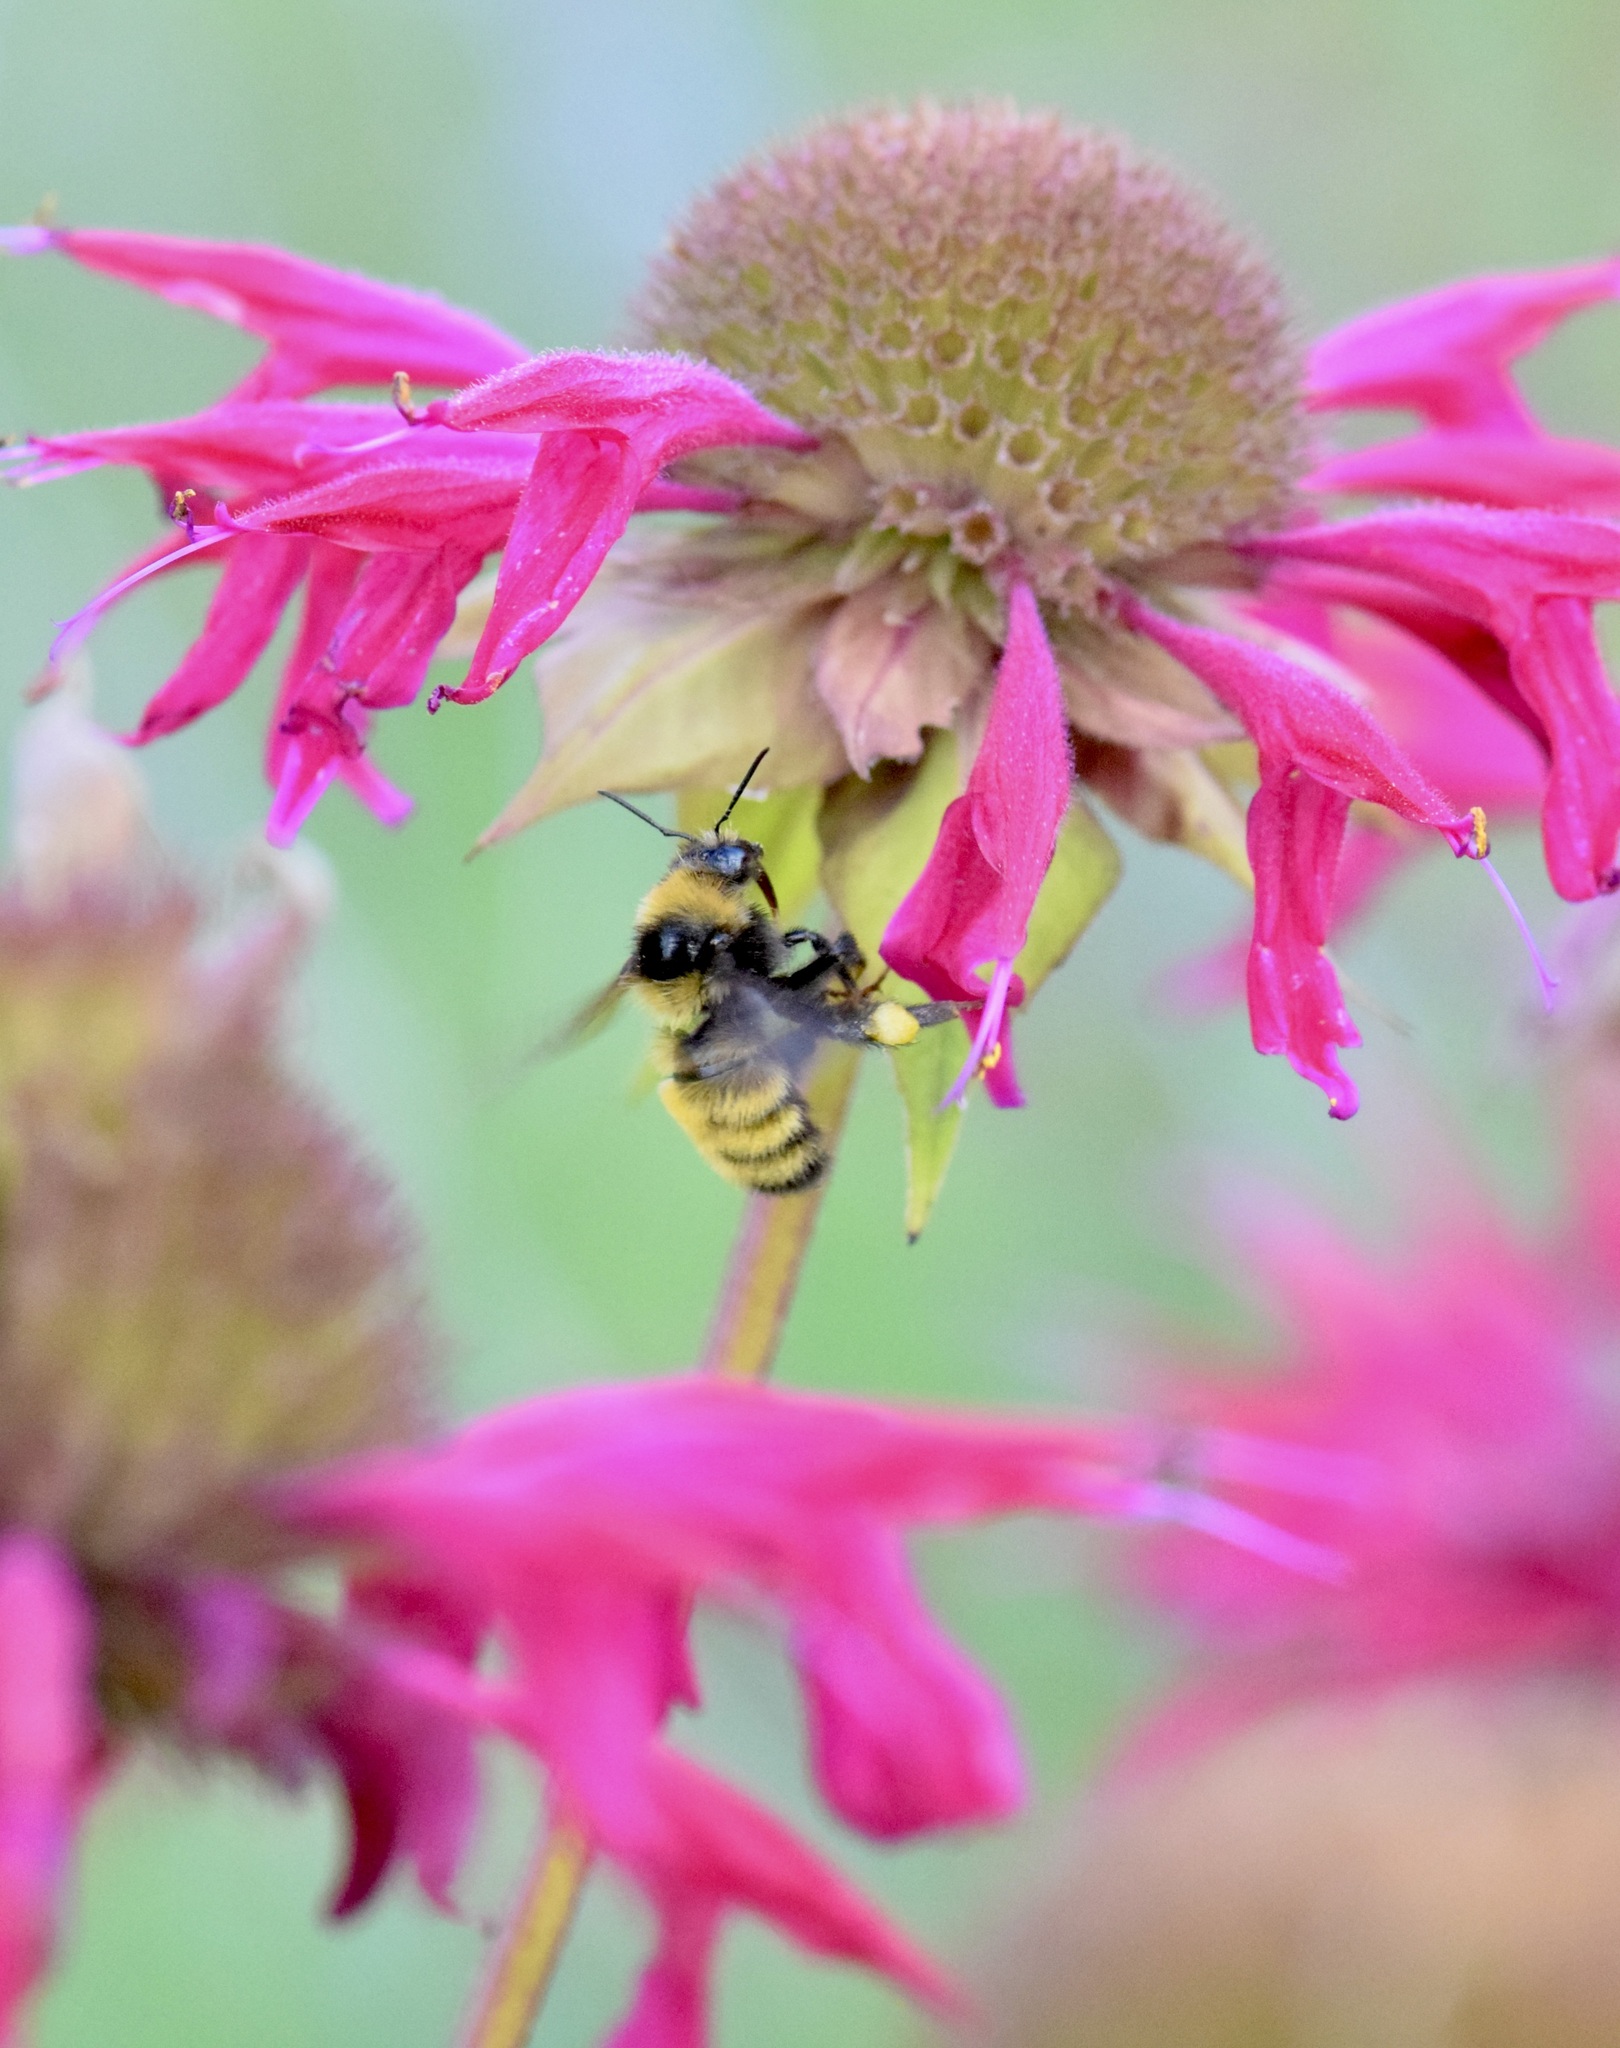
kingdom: Animalia
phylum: Arthropoda
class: Insecta
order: Hymenoptera
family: Apidae
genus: Bombus
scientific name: Bombus borealis
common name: Northern amber bumble bee
